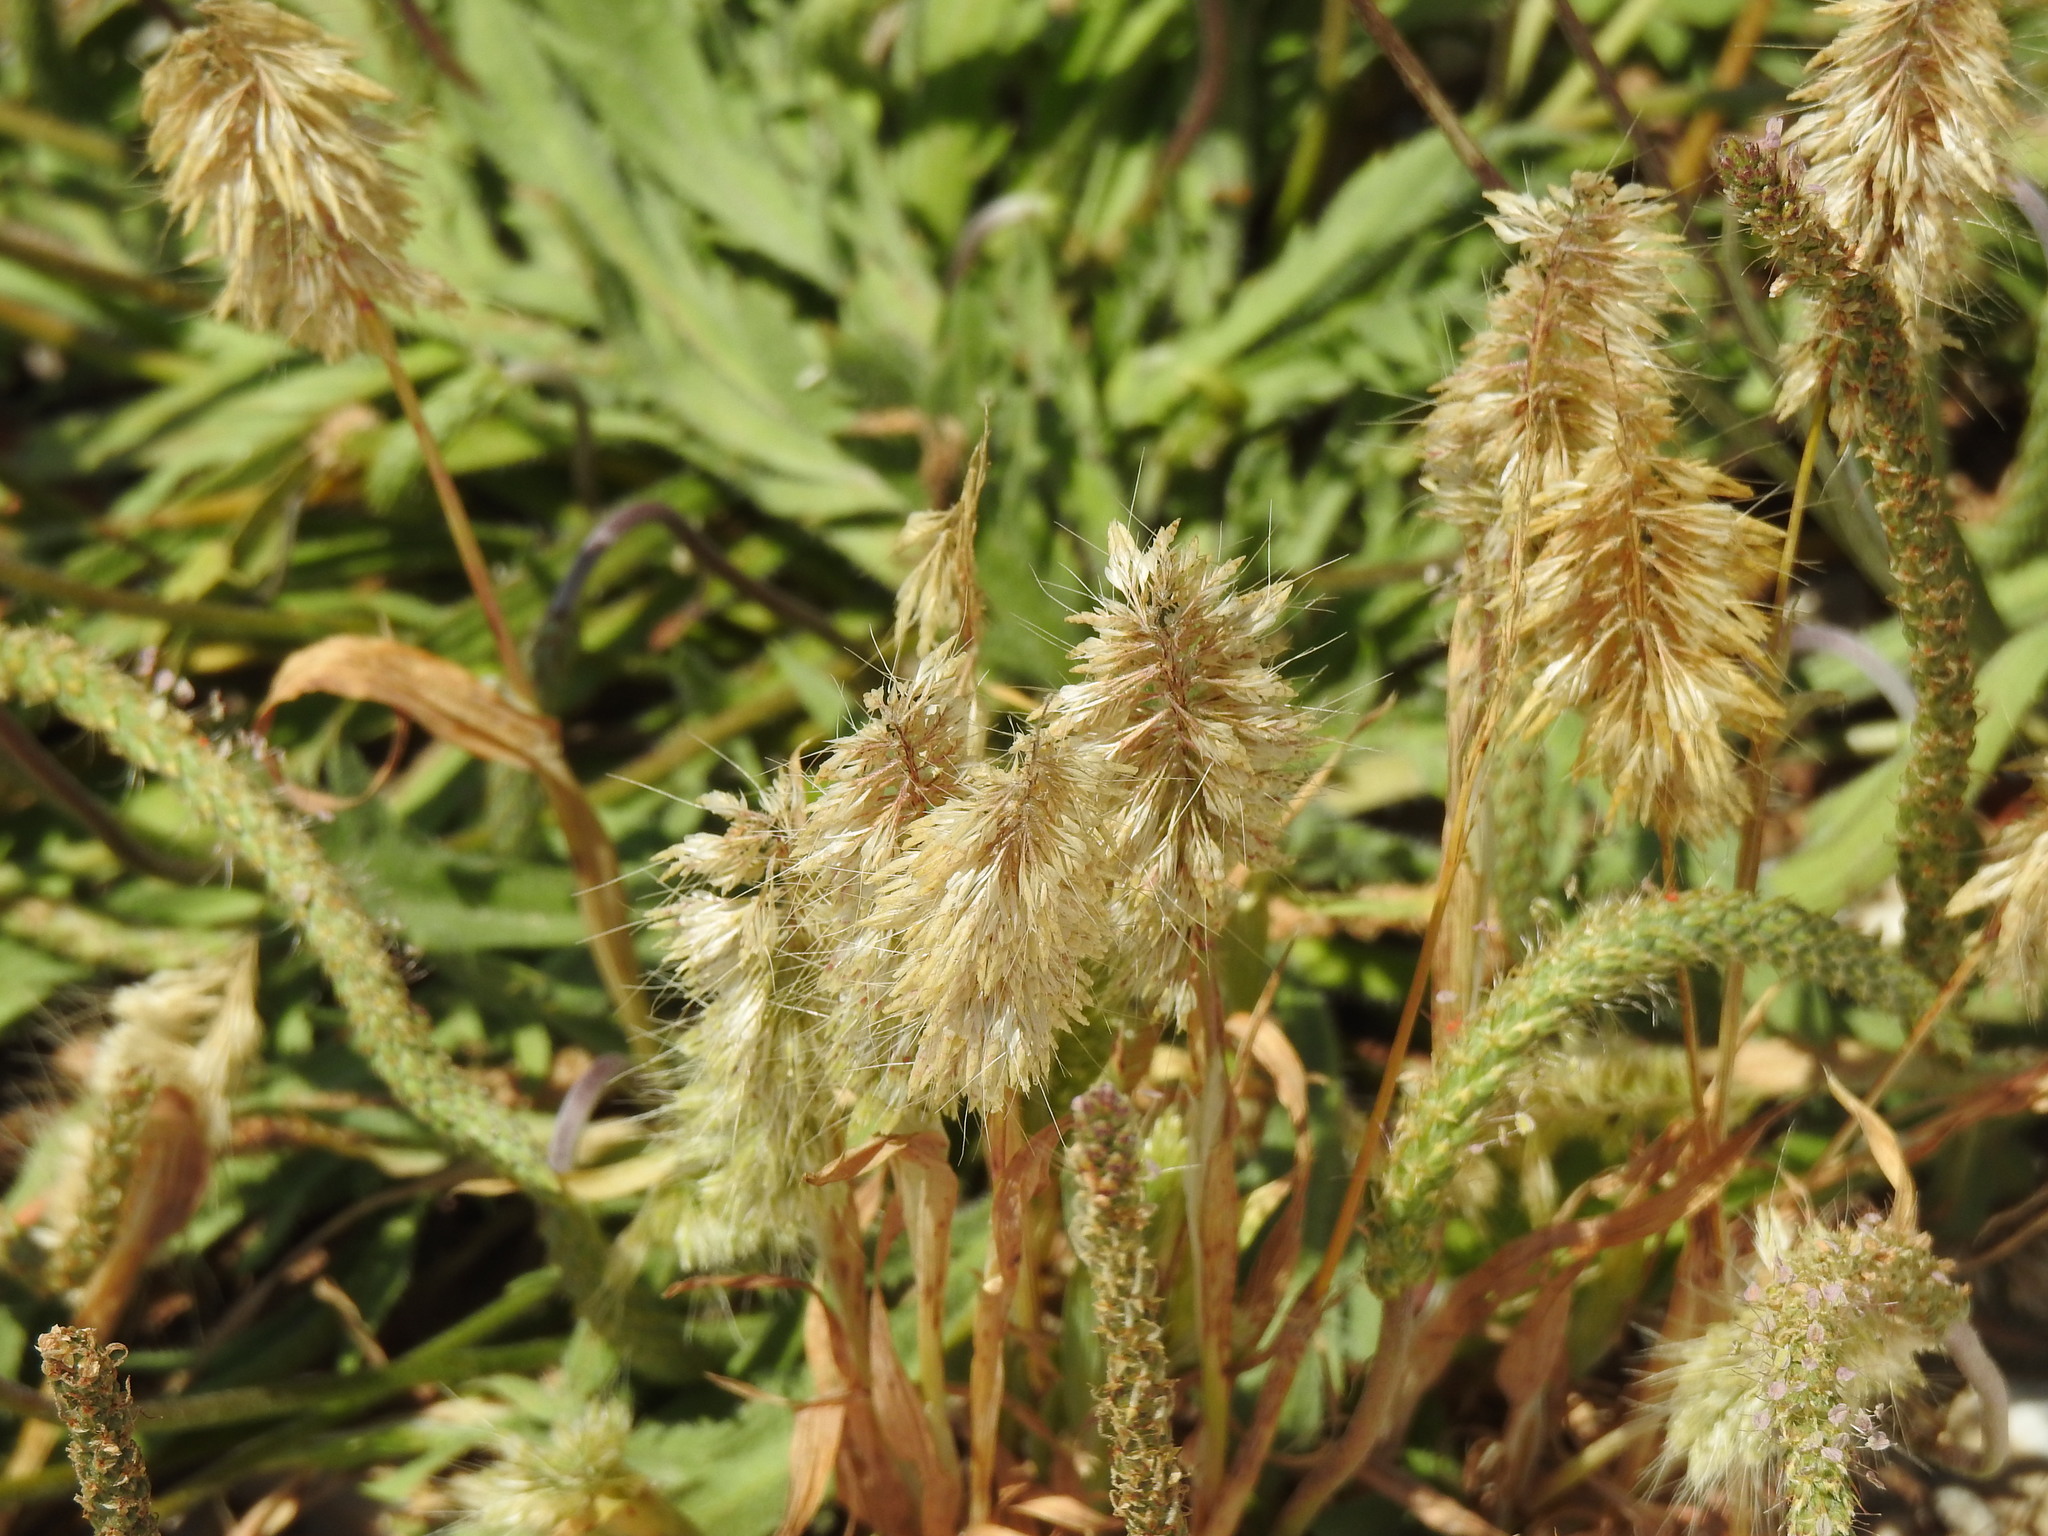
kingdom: Plantae
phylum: Tracheophyta
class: Liliopsida
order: Poales
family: Poaceae
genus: Lamarckia
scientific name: Lamarckia aurea
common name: Golden dog's-tail
